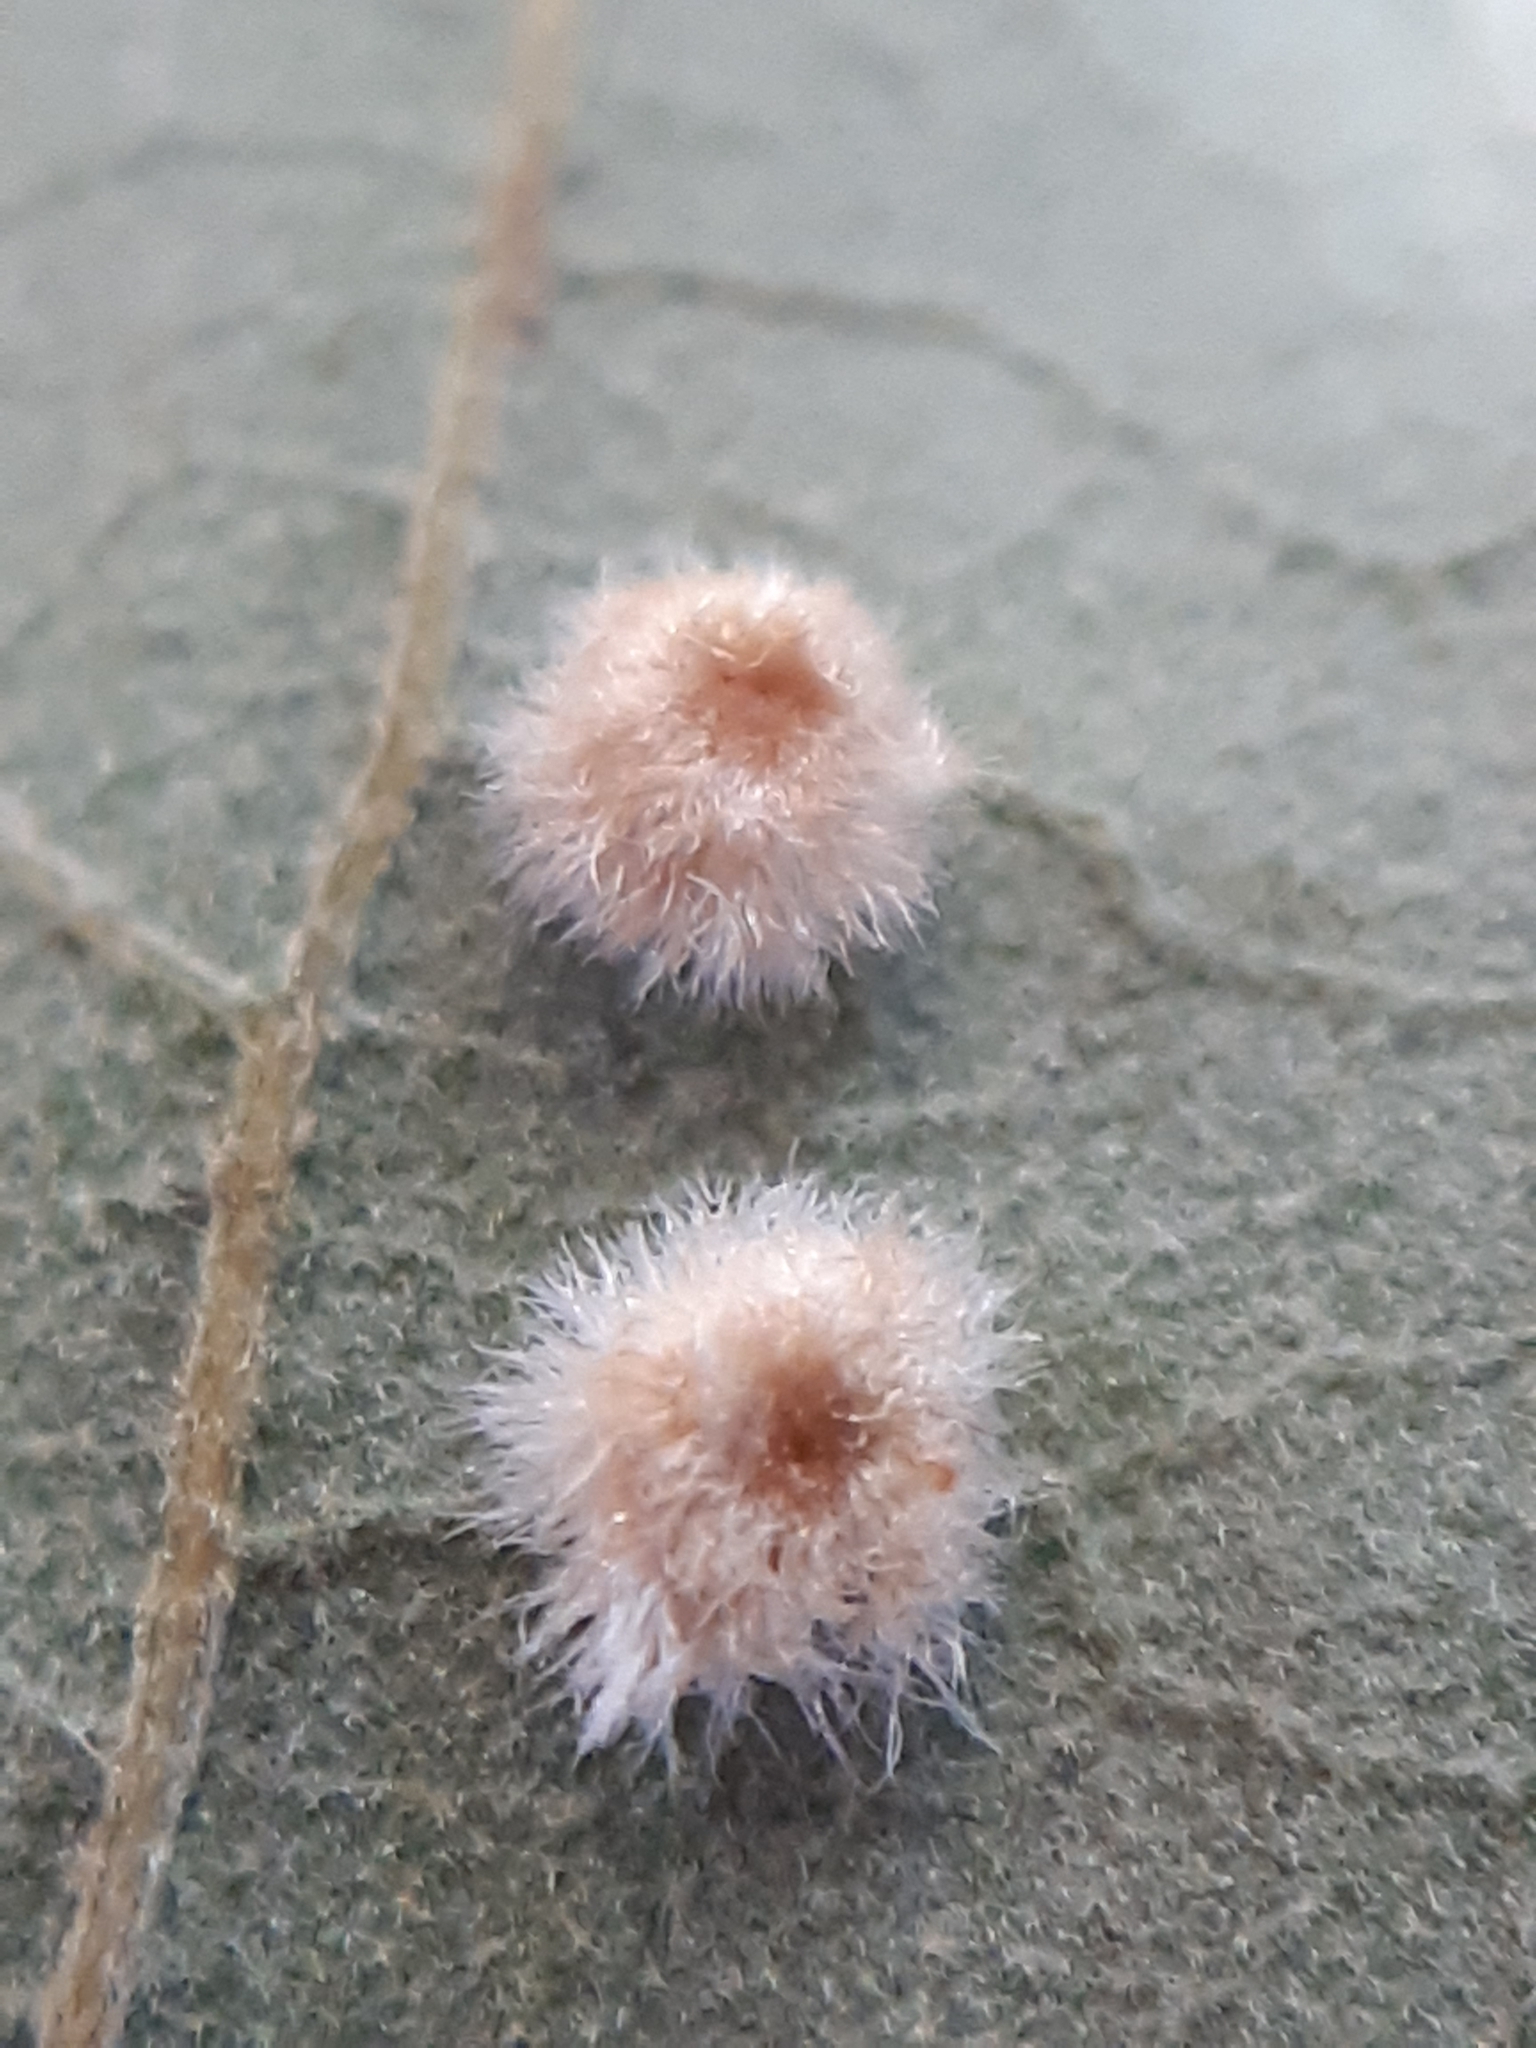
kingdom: Animalia
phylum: Arthropoda
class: Insecta
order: Hymenoptera
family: Cynipidae
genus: Neuroterus
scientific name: Neuroterus lanuginosus
